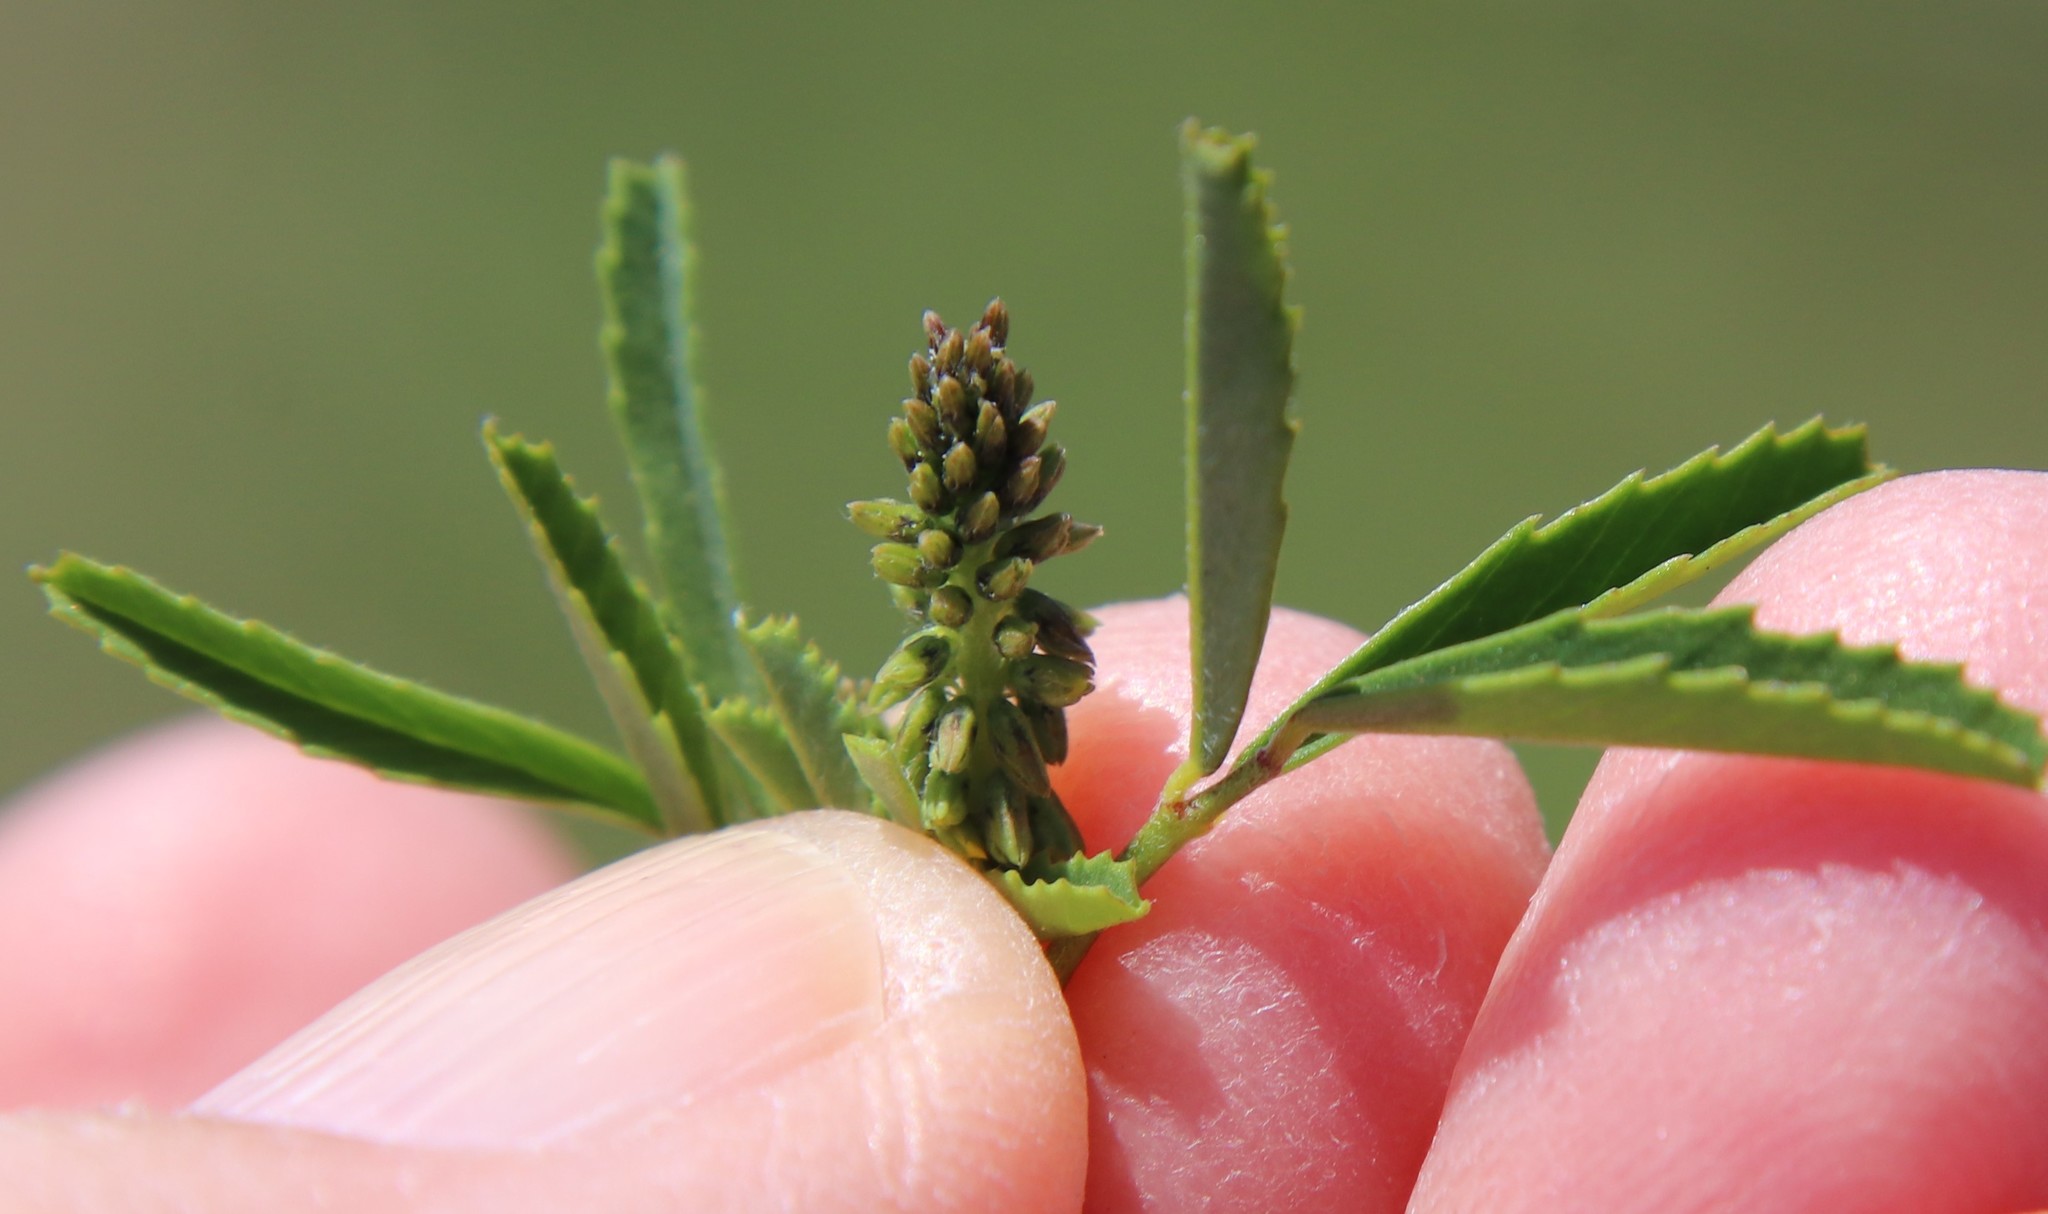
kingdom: Plantae
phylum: Tracheophyta
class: Magnoliopsida
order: Fabales
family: Fabaceae
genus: Melilotus
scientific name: Melilotus indicus
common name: Small melilot
